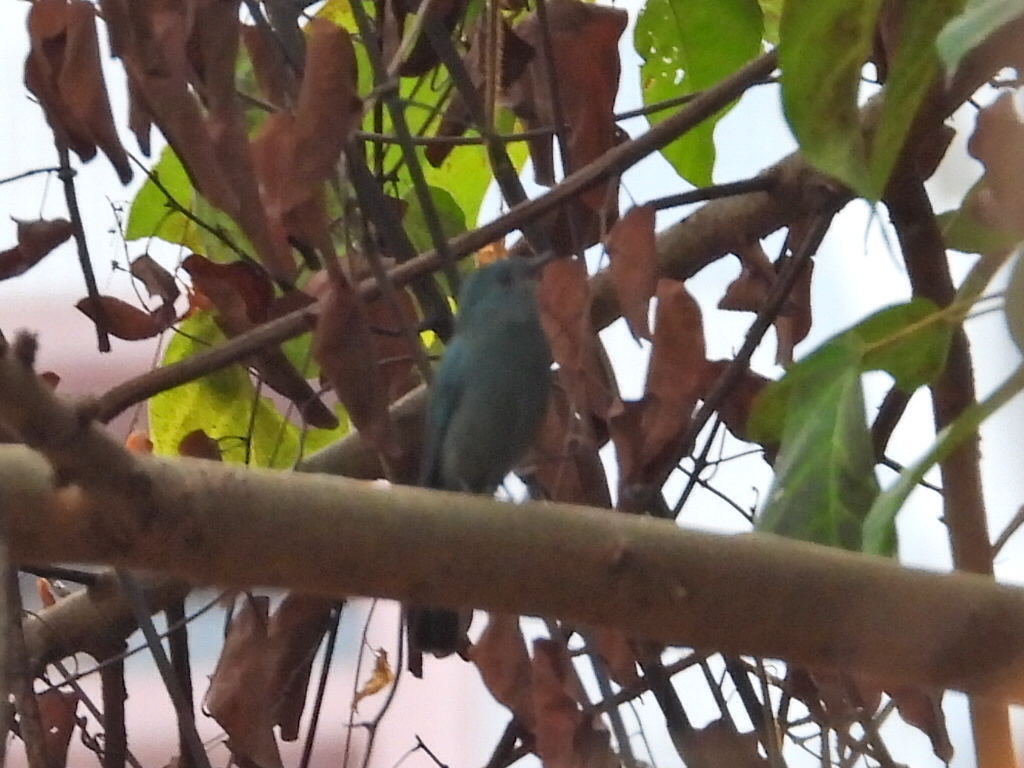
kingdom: Animalia
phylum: Chordata
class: Aves
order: Passeriformes
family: Muscicapidae
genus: Eumyias
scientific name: Eumyias thalassinus
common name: Verditer flycatcher
